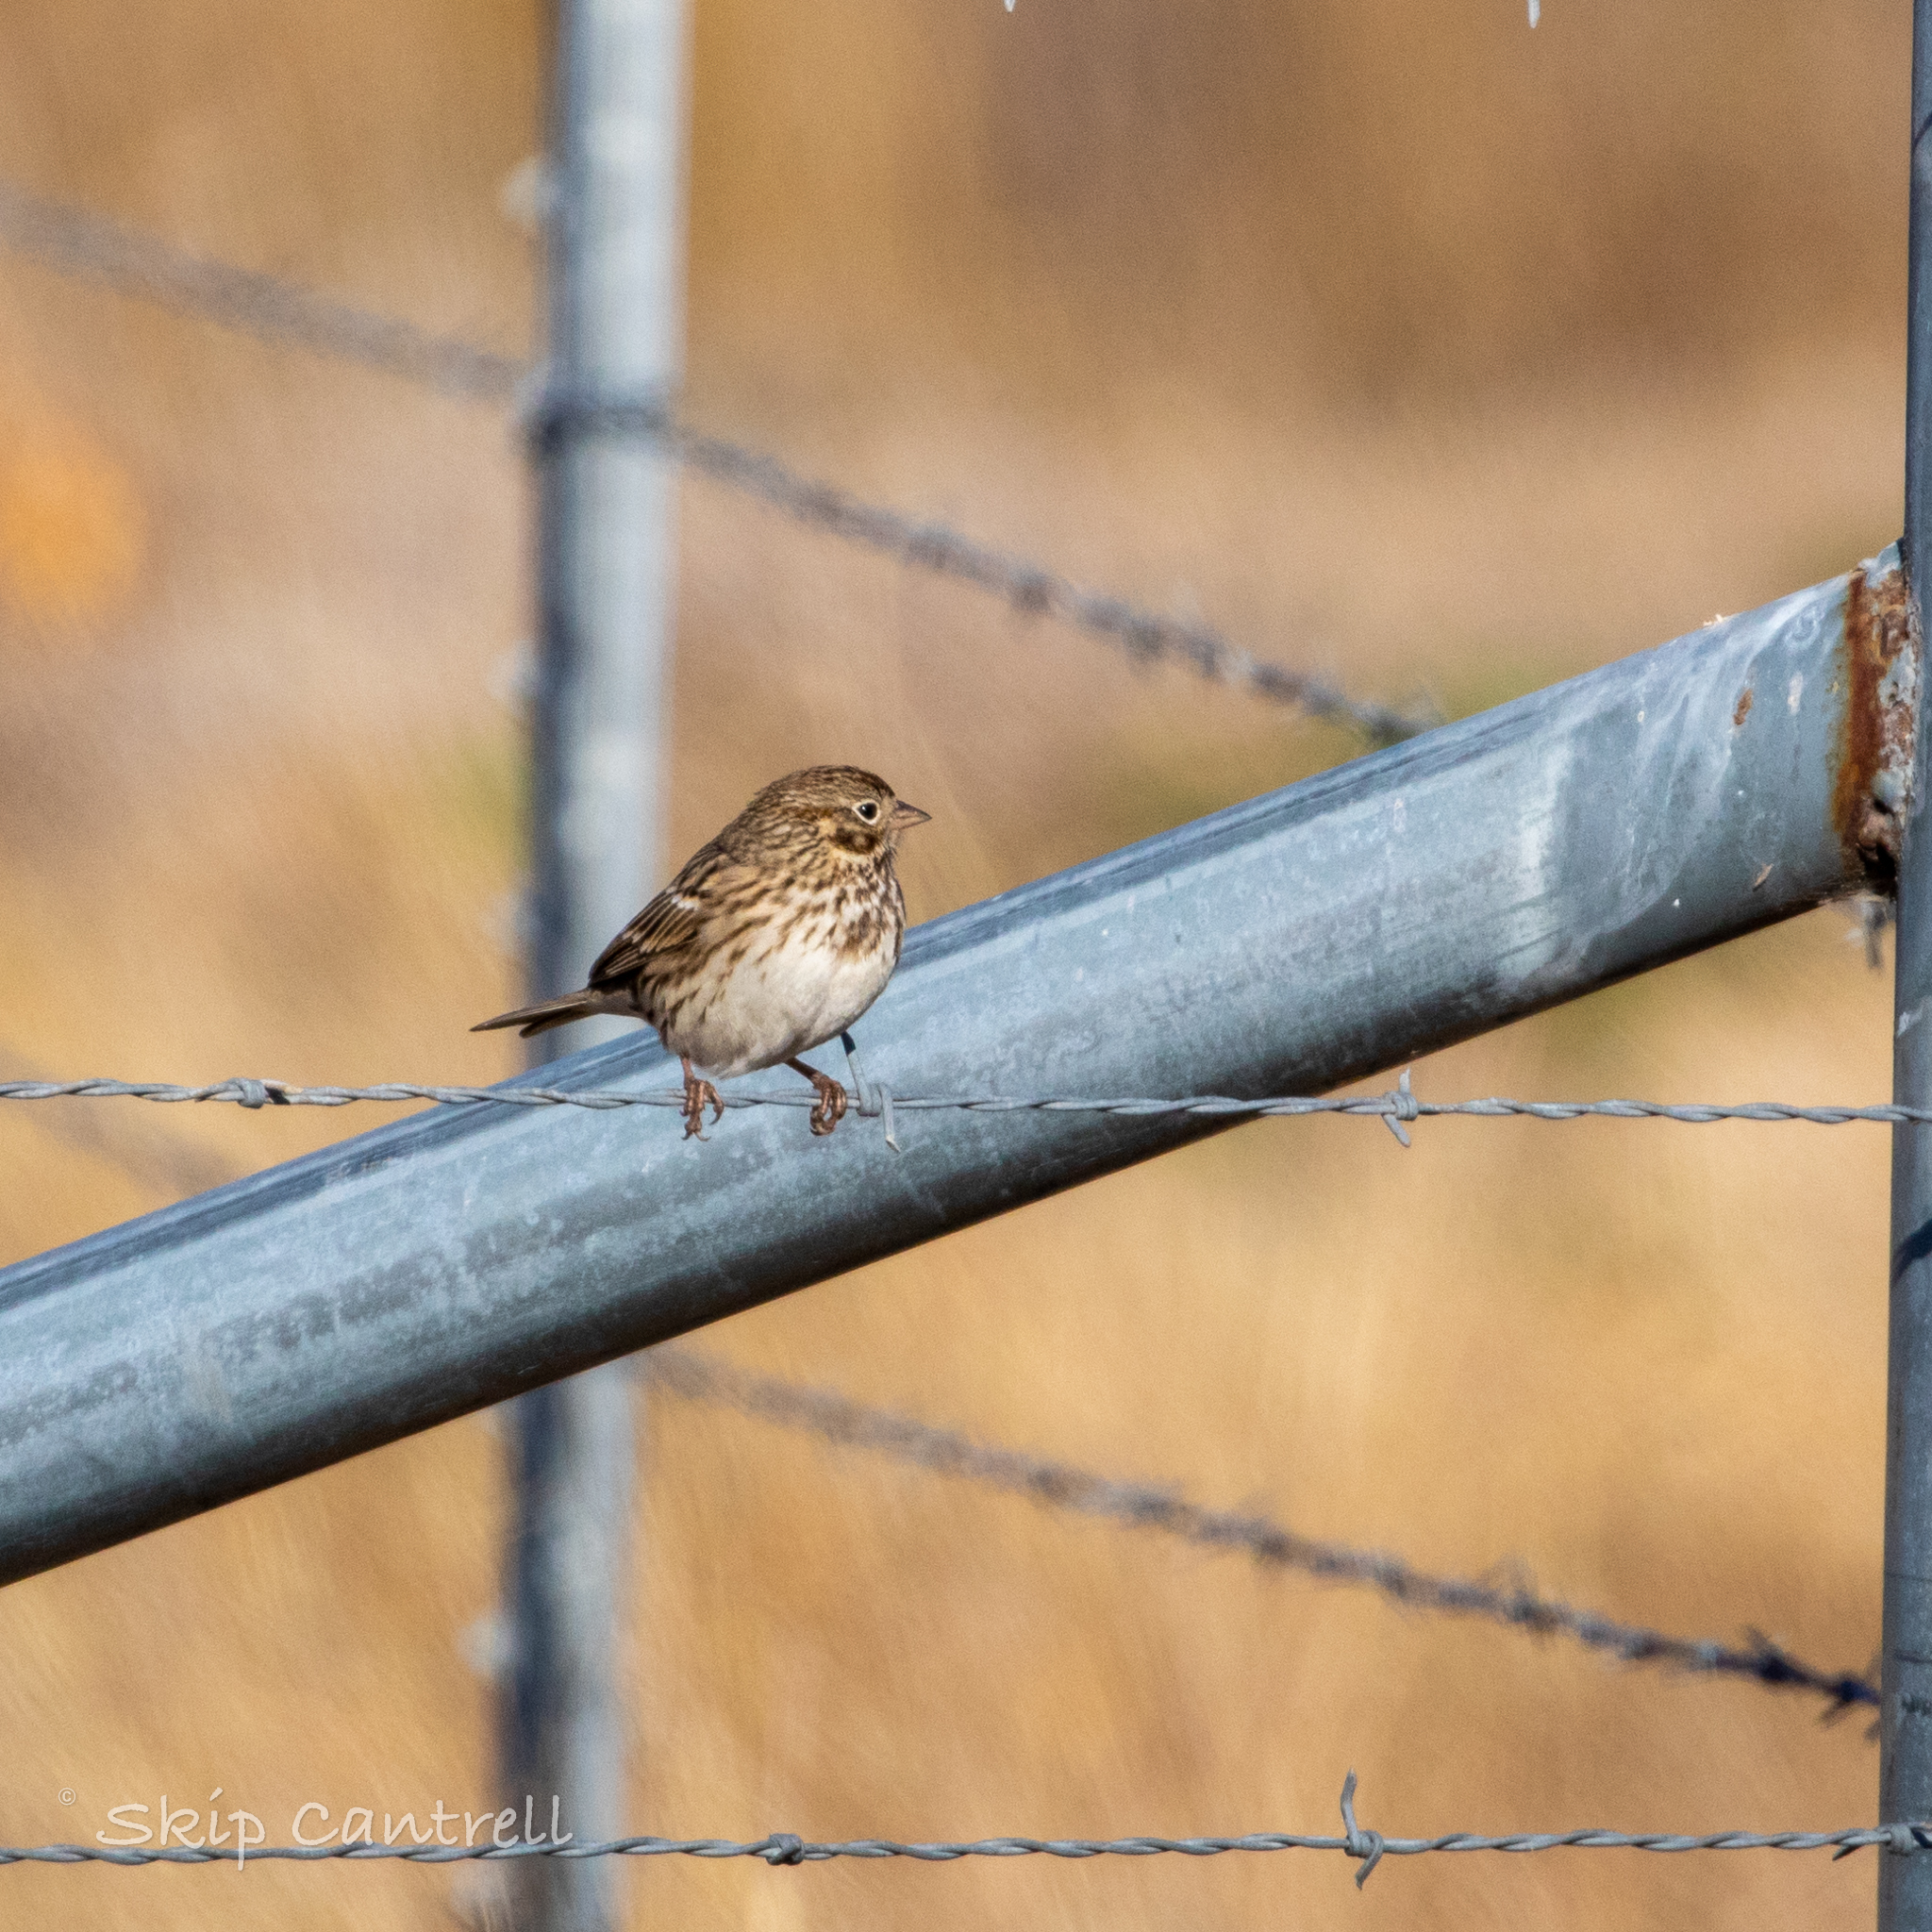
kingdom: Animalia
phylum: Chordata
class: Aves
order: Passeriformes
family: Passerellidae
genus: Pooecetes
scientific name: Pooecetes gramineus
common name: Vesper sparrow
